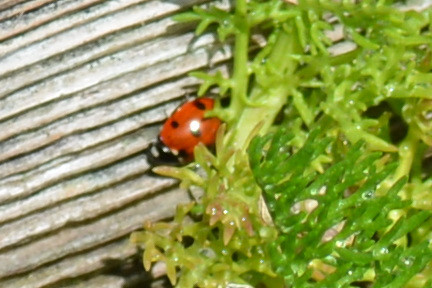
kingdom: Animalia
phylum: Arthropoda
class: Insecta
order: Coleoptera
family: Coccinellidae
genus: Coccinella
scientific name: Coccinella septempunctata
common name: Sevenspotted lady beetle
